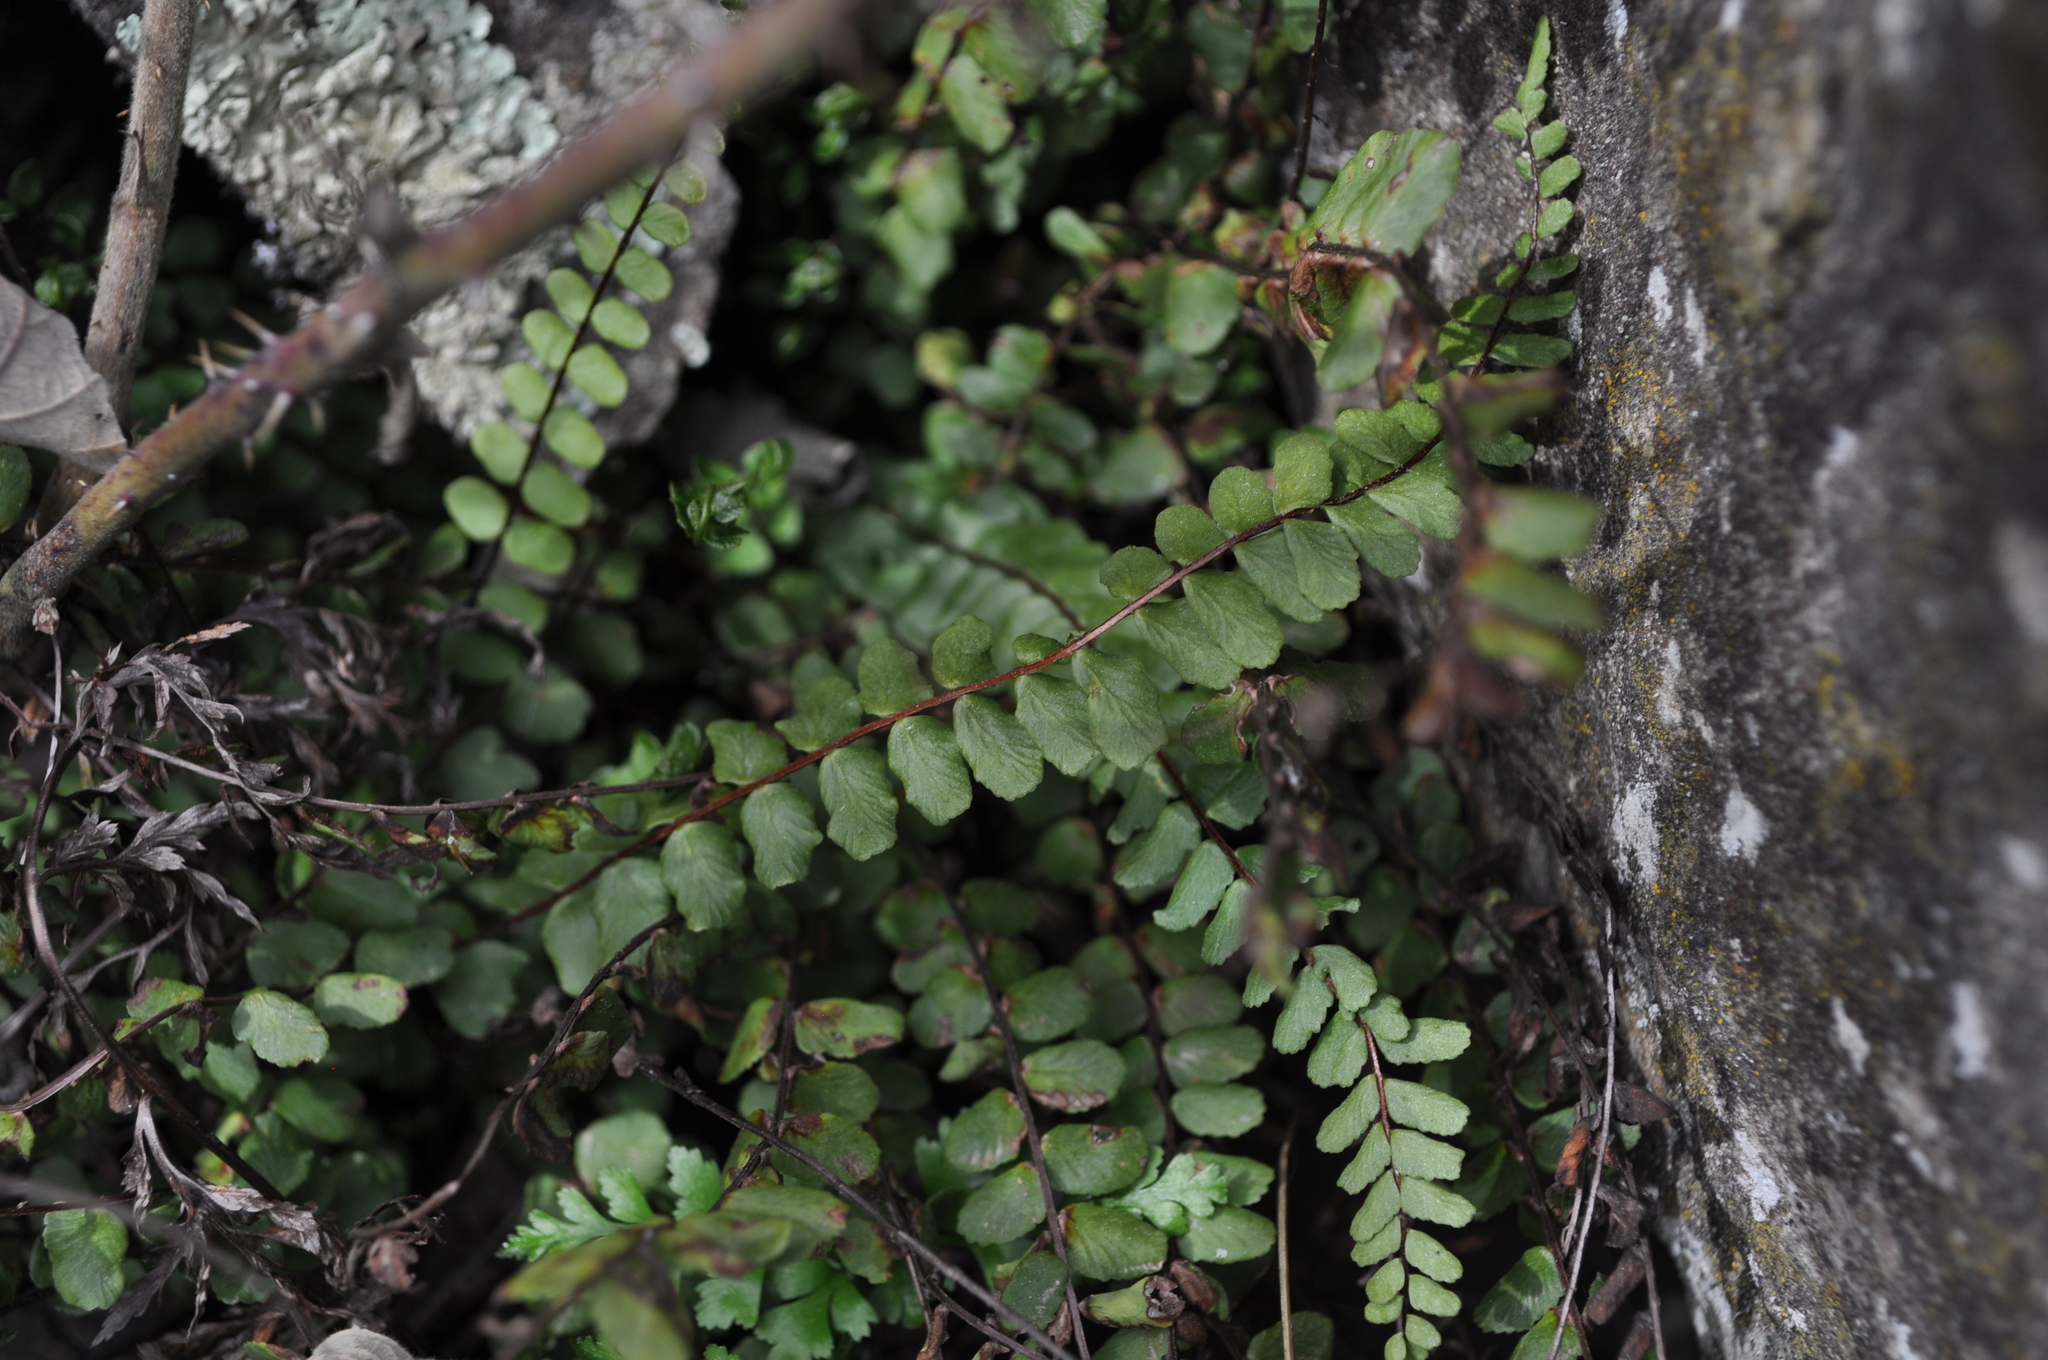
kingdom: Plantae
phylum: Tracheophyta
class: Polypodiopsida
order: Polypodiales
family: Aspleniaceae
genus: Asplenium
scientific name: Asplenium trichomanes
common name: Maidenhair spleenwort
